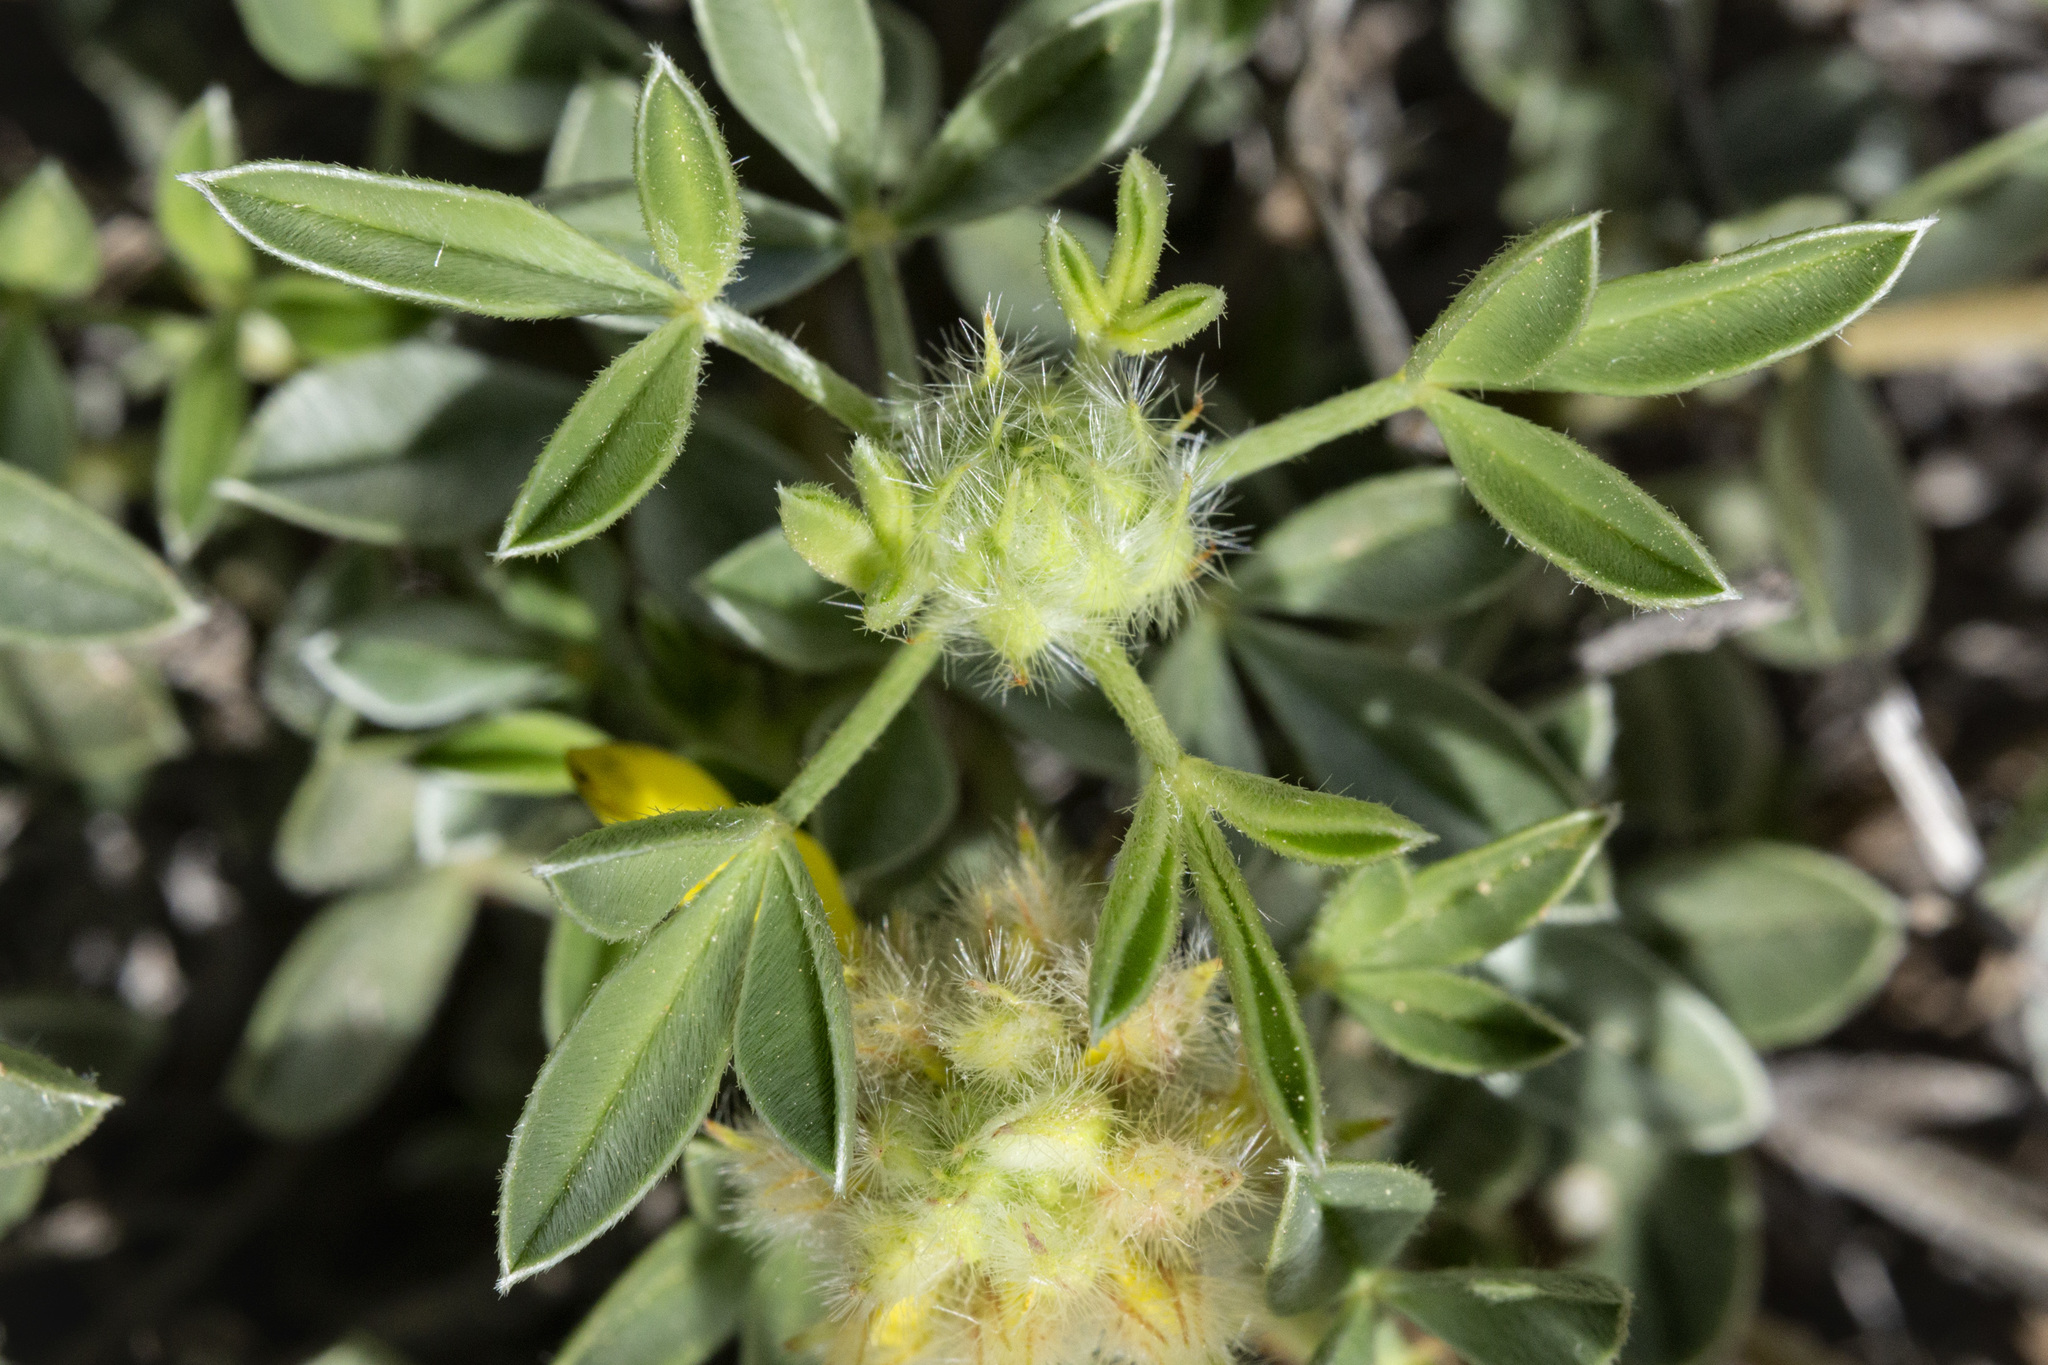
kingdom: Plantae
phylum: Tracheophyta
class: Magnoliopsida
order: Fabales
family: Fabaceae
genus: Dalea
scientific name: Dalea jamesii
